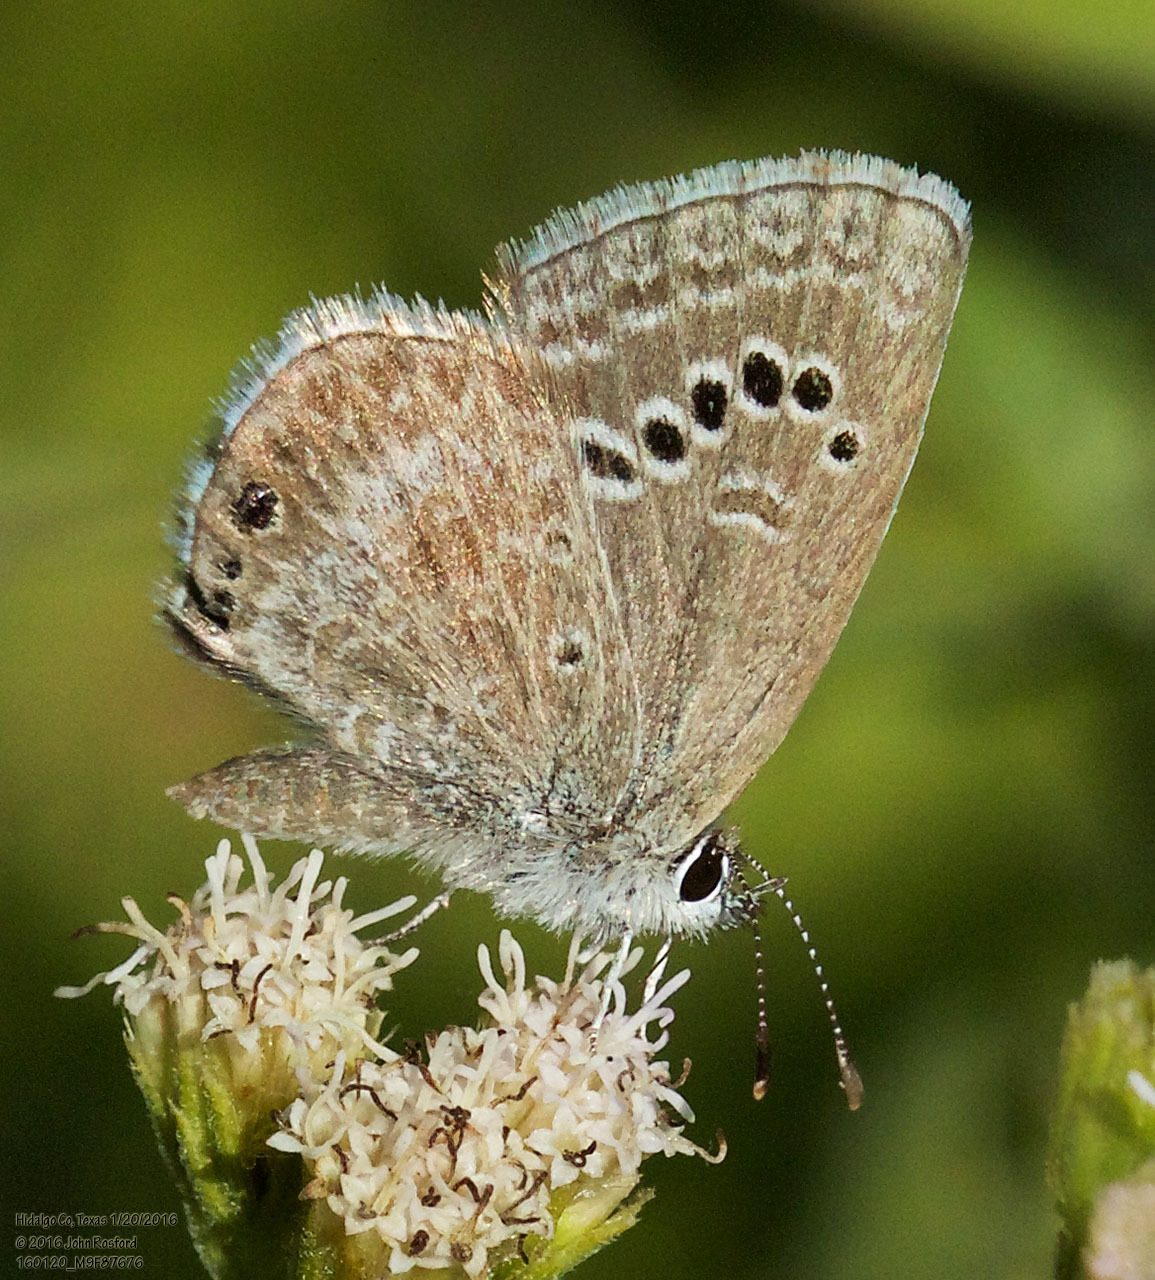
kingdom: Animalia
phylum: Arthropoda
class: Insecta
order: Lepidoptera
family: Lycaenidae
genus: Echinargus
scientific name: Echinargus isola
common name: Reakirt's blue
